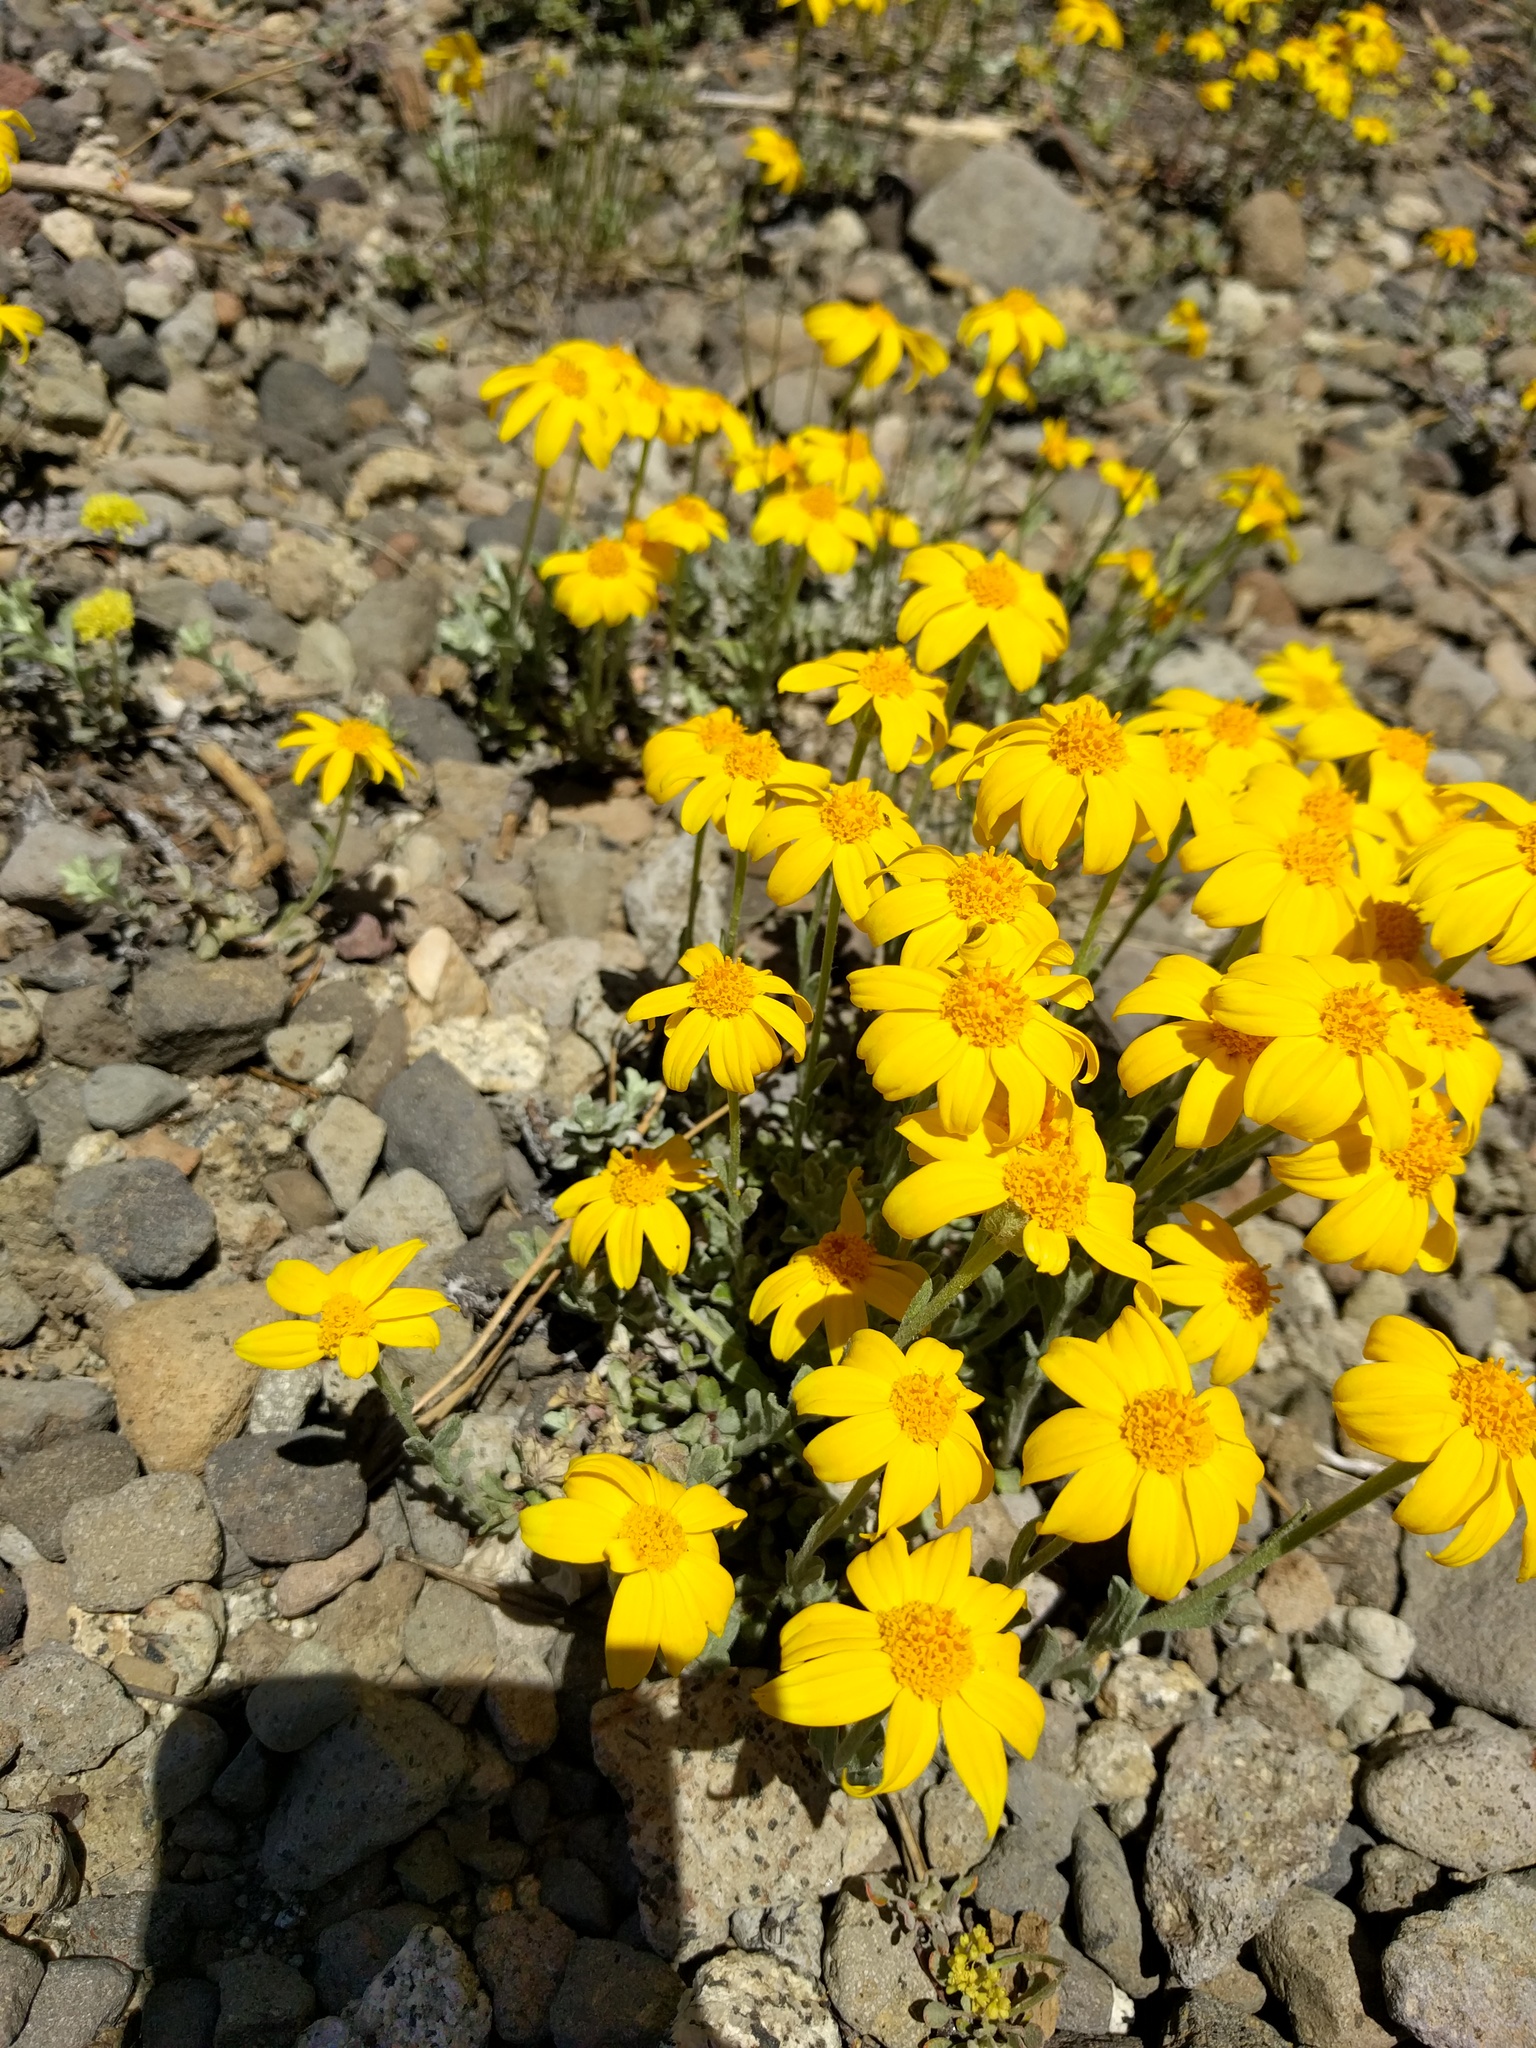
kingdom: Plantae
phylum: Tracheophyta
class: Magnoliopsida
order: Asterales
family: Asteraceae
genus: Eriophyllum
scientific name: Eriophyllum lanatum
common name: Common woolly-sunflower
